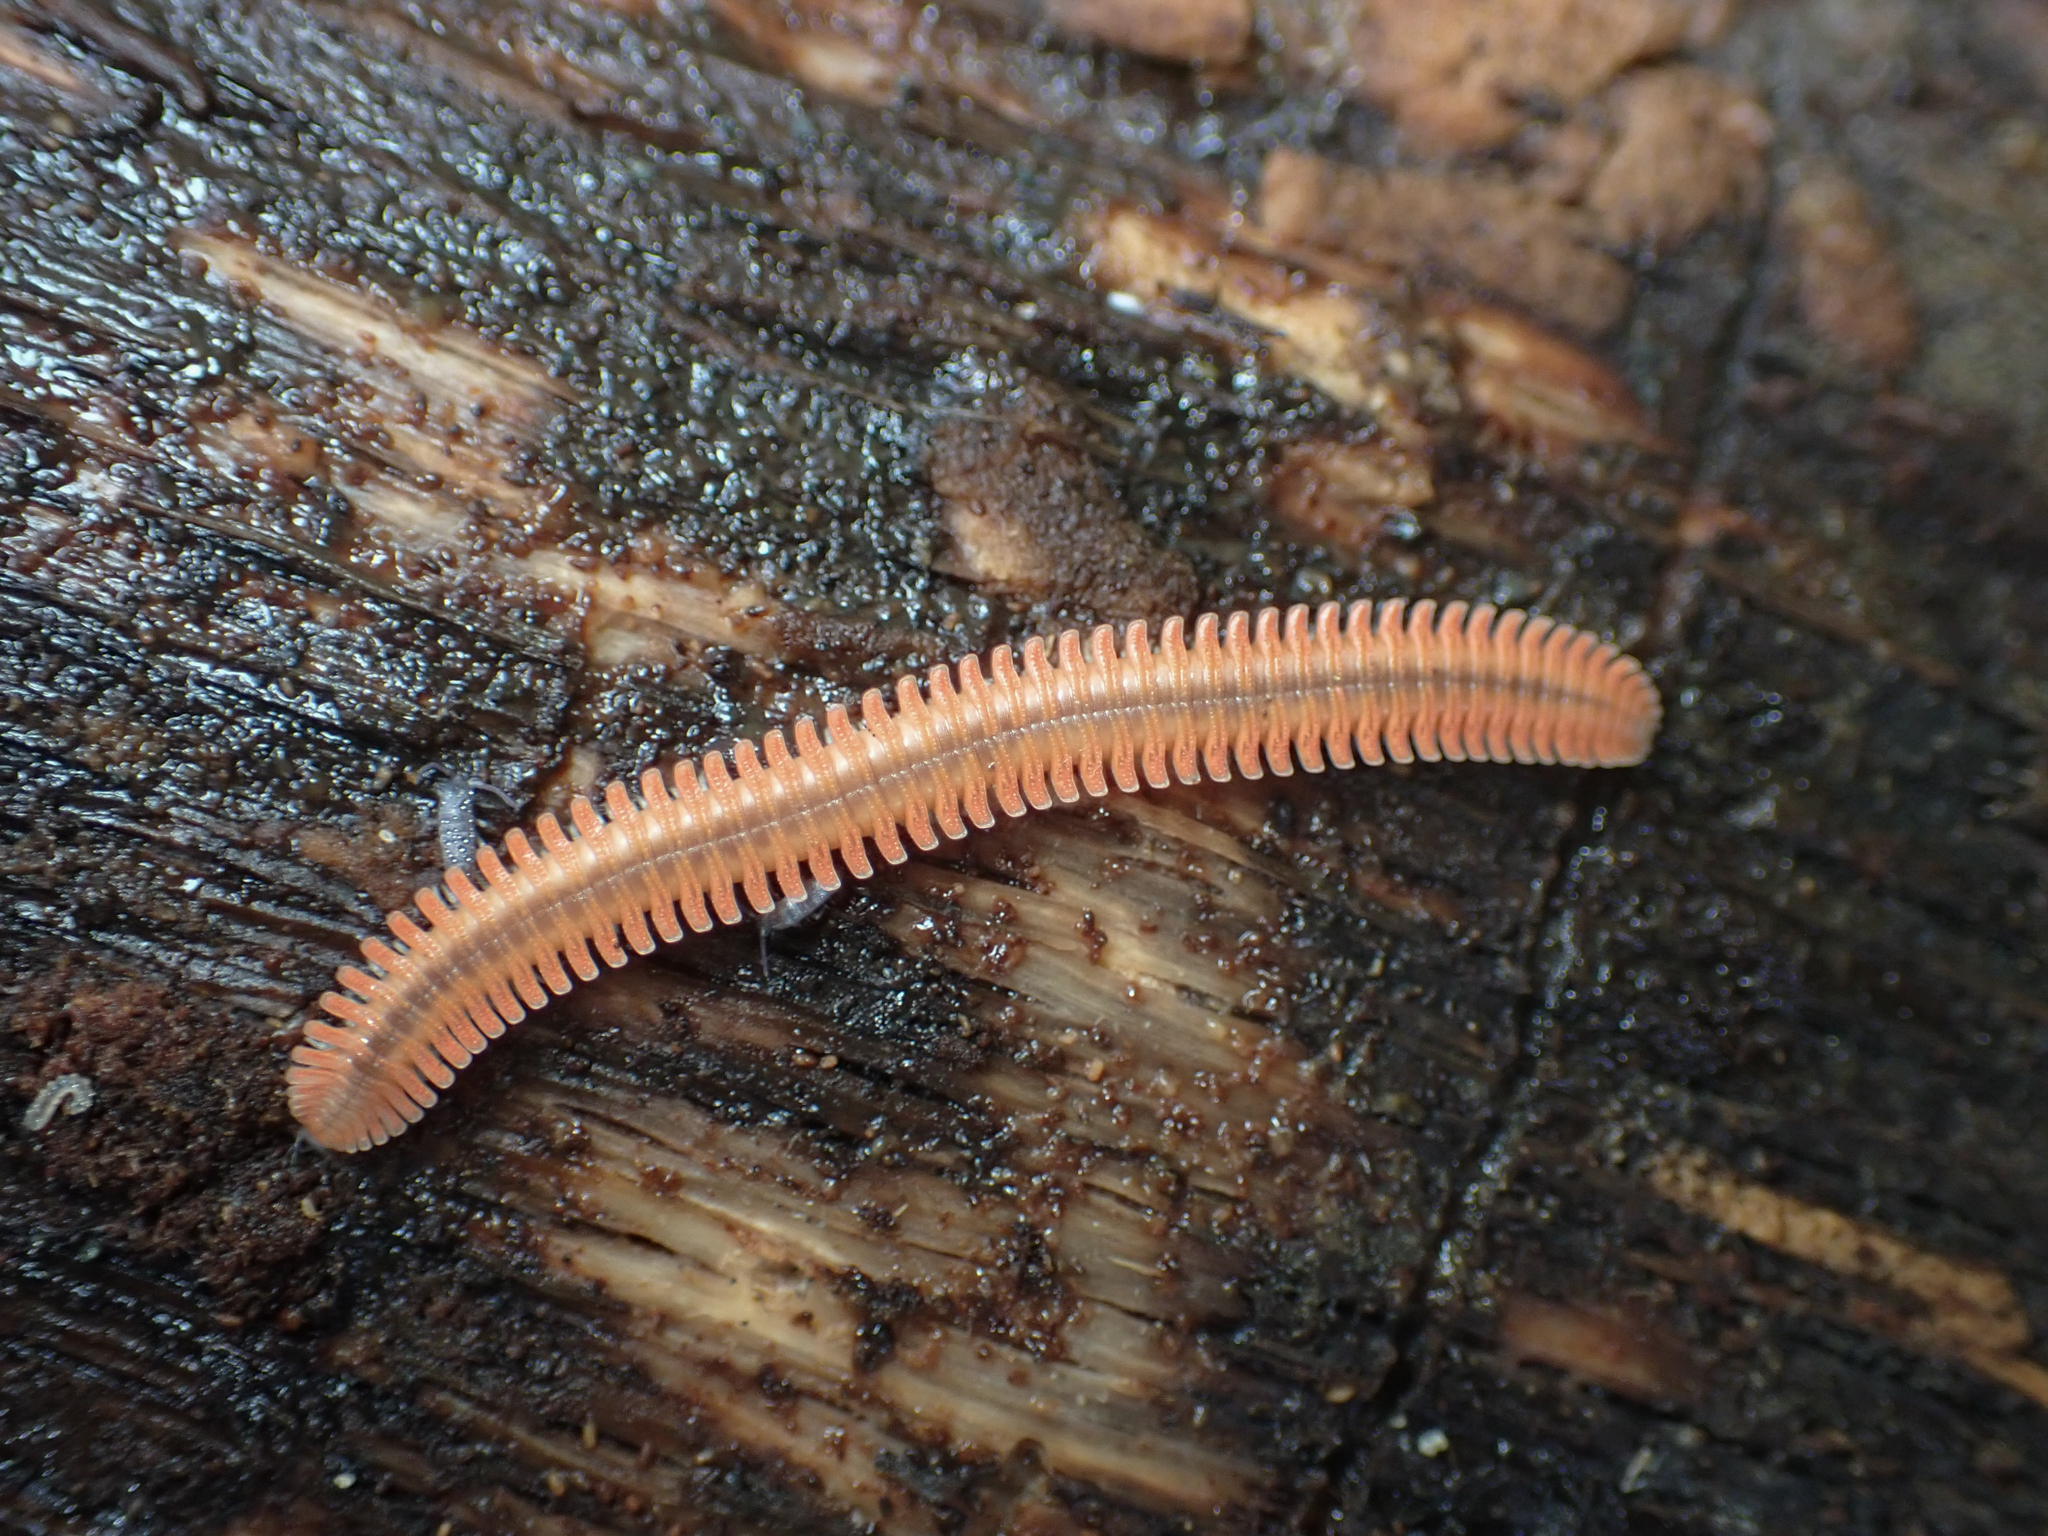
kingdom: Animalia
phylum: Arthropoda
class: Diplopoda
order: Platydesmida
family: Andrognathidae
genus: Brachycybe
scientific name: Brachycybe rosea
